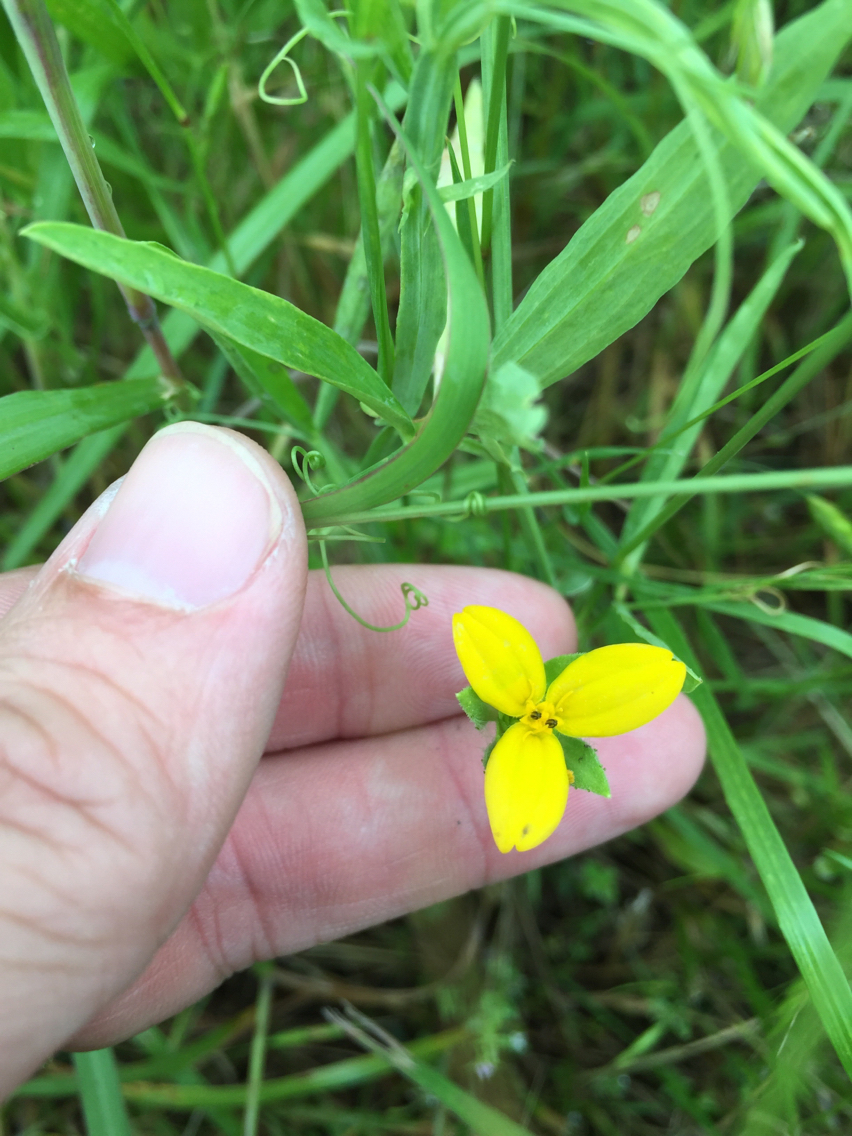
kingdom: Plantae
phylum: Tracheophyta
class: Magnoliopsida
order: Asterales
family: Asteraceae
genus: Lindheimera
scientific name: Lindheimera texana
